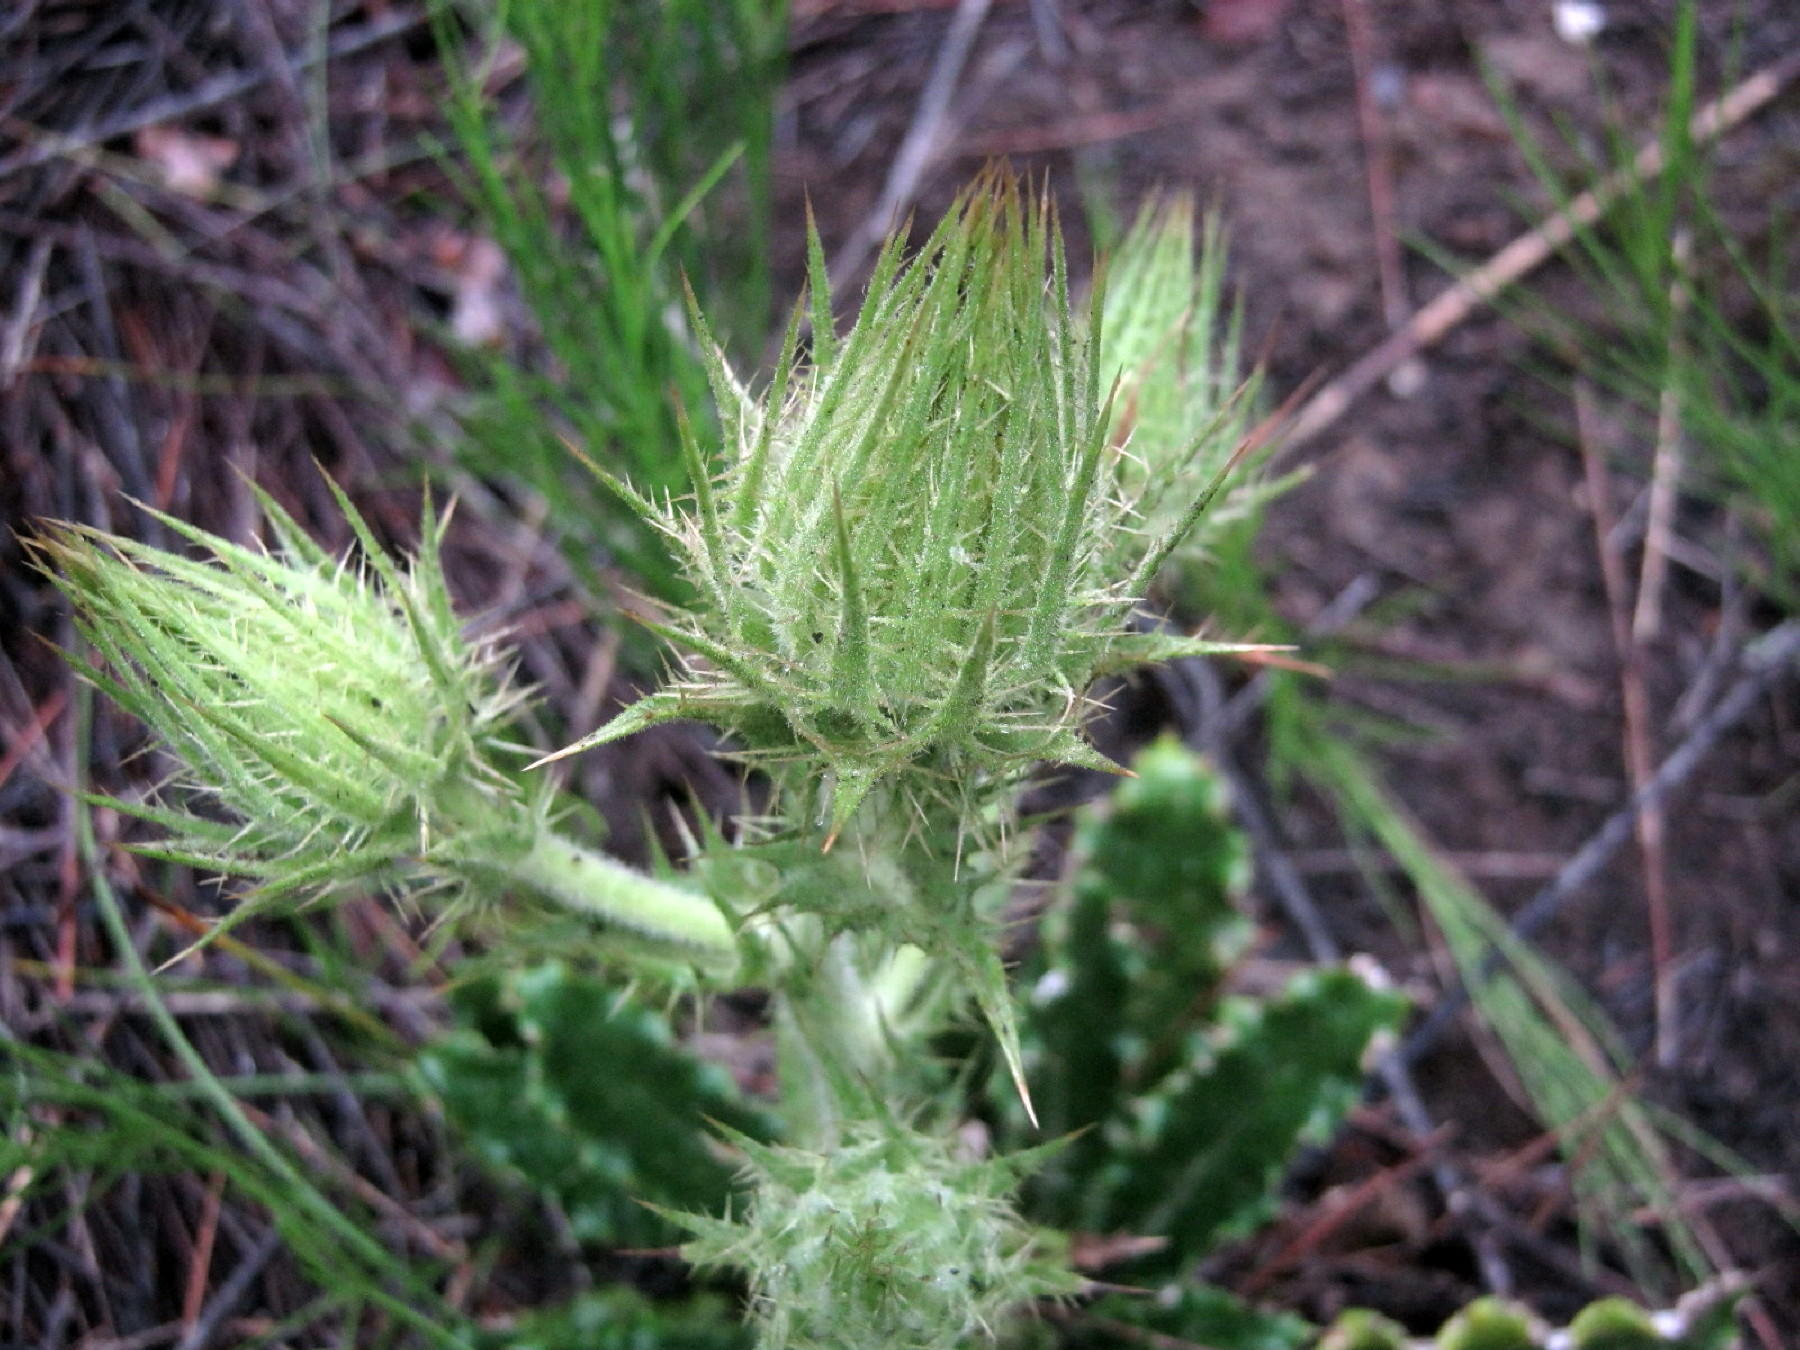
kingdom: Plantae
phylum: Tracheophyta
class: Magnoliopsida
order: Asterales
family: Asteraceae
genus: Berkheya
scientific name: Berkheya carlinoides
